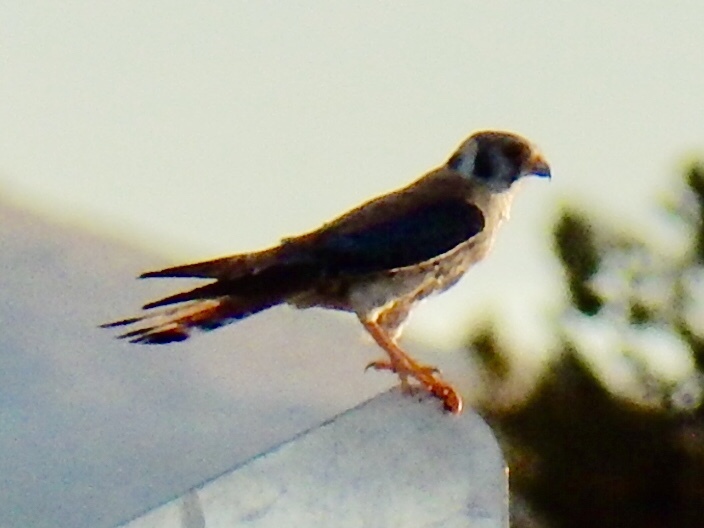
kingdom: Animalia
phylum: Chordata
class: Aves
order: Falconiformes
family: Falconidae
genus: Falco
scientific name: Falco sparverius
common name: American kestrel
